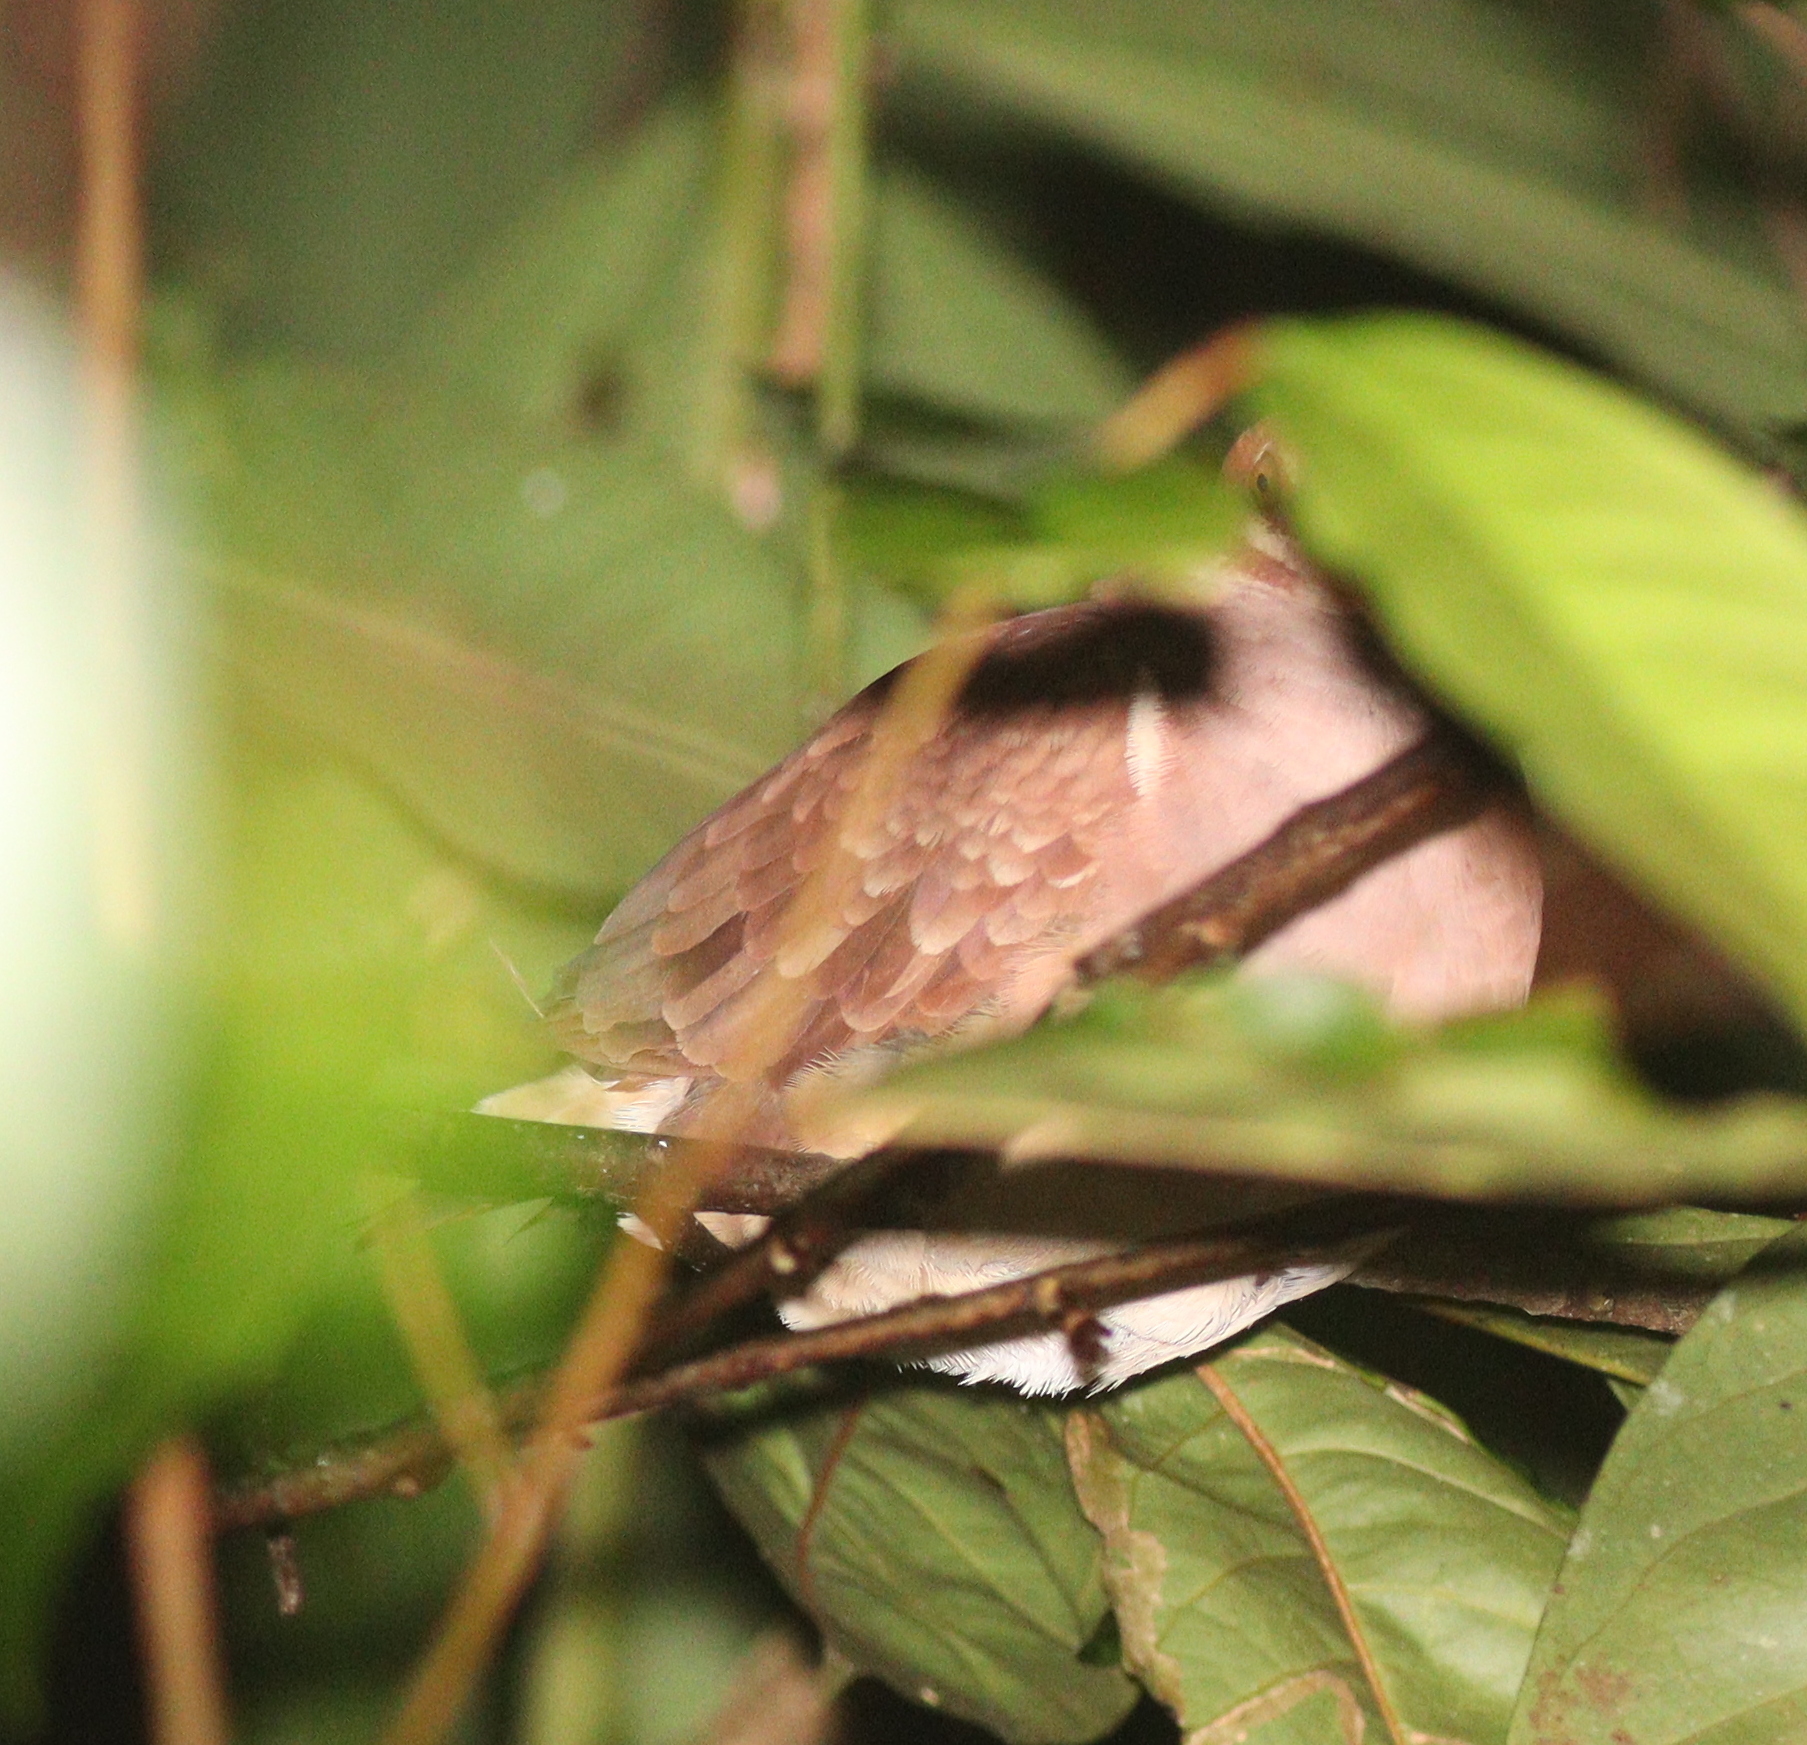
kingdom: Animalia
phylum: Chordata
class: Aves
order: Columbiformes
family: Columbidae
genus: Geotrygon
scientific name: Geotrygon montana
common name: Ruddy quail-dove
